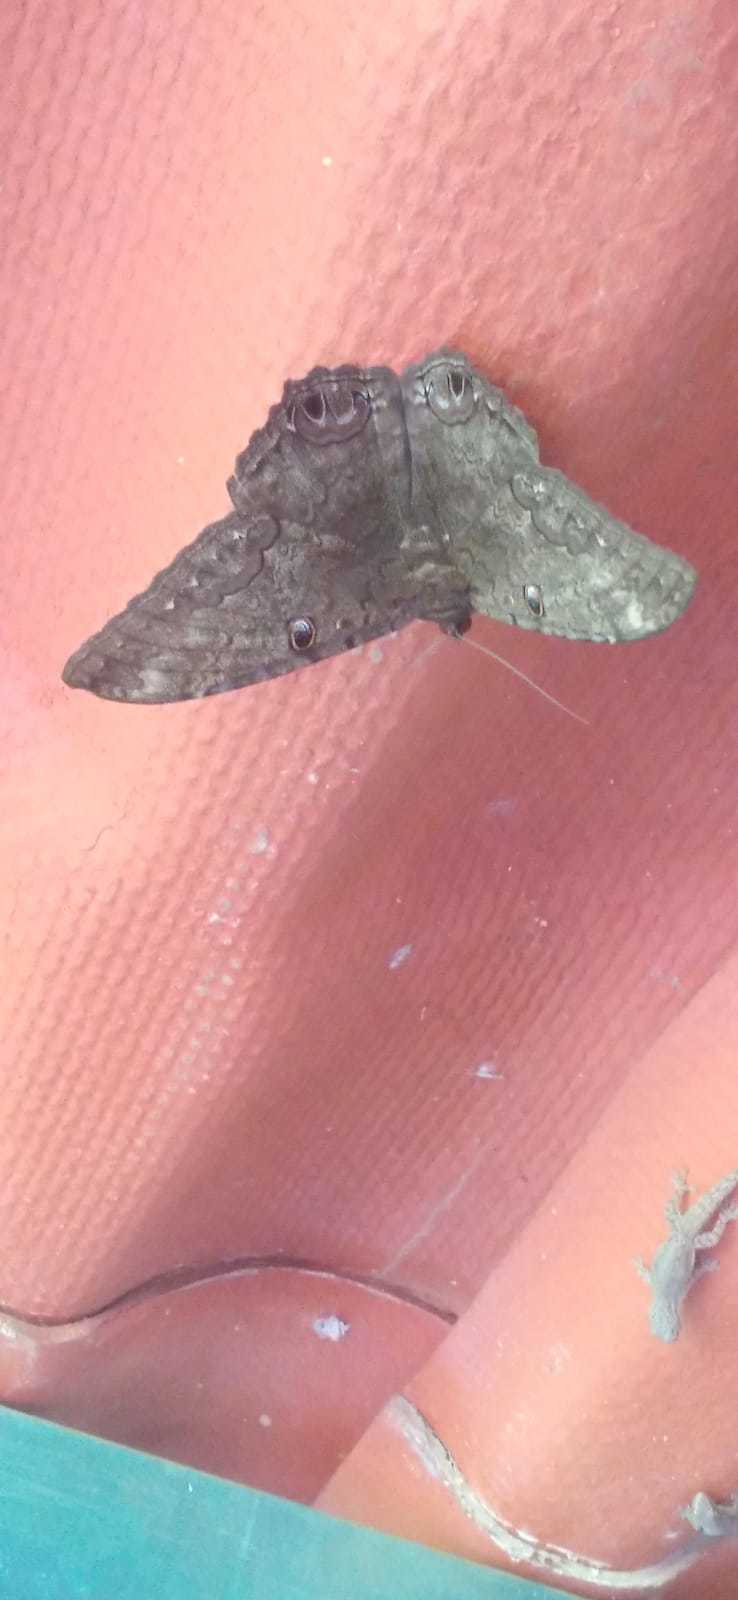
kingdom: Animalia
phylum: Arthropoda
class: Insecta
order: Lepidoptera
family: Erebidae
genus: Ascalapha
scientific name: Ascalapha odorata
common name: Black witch
